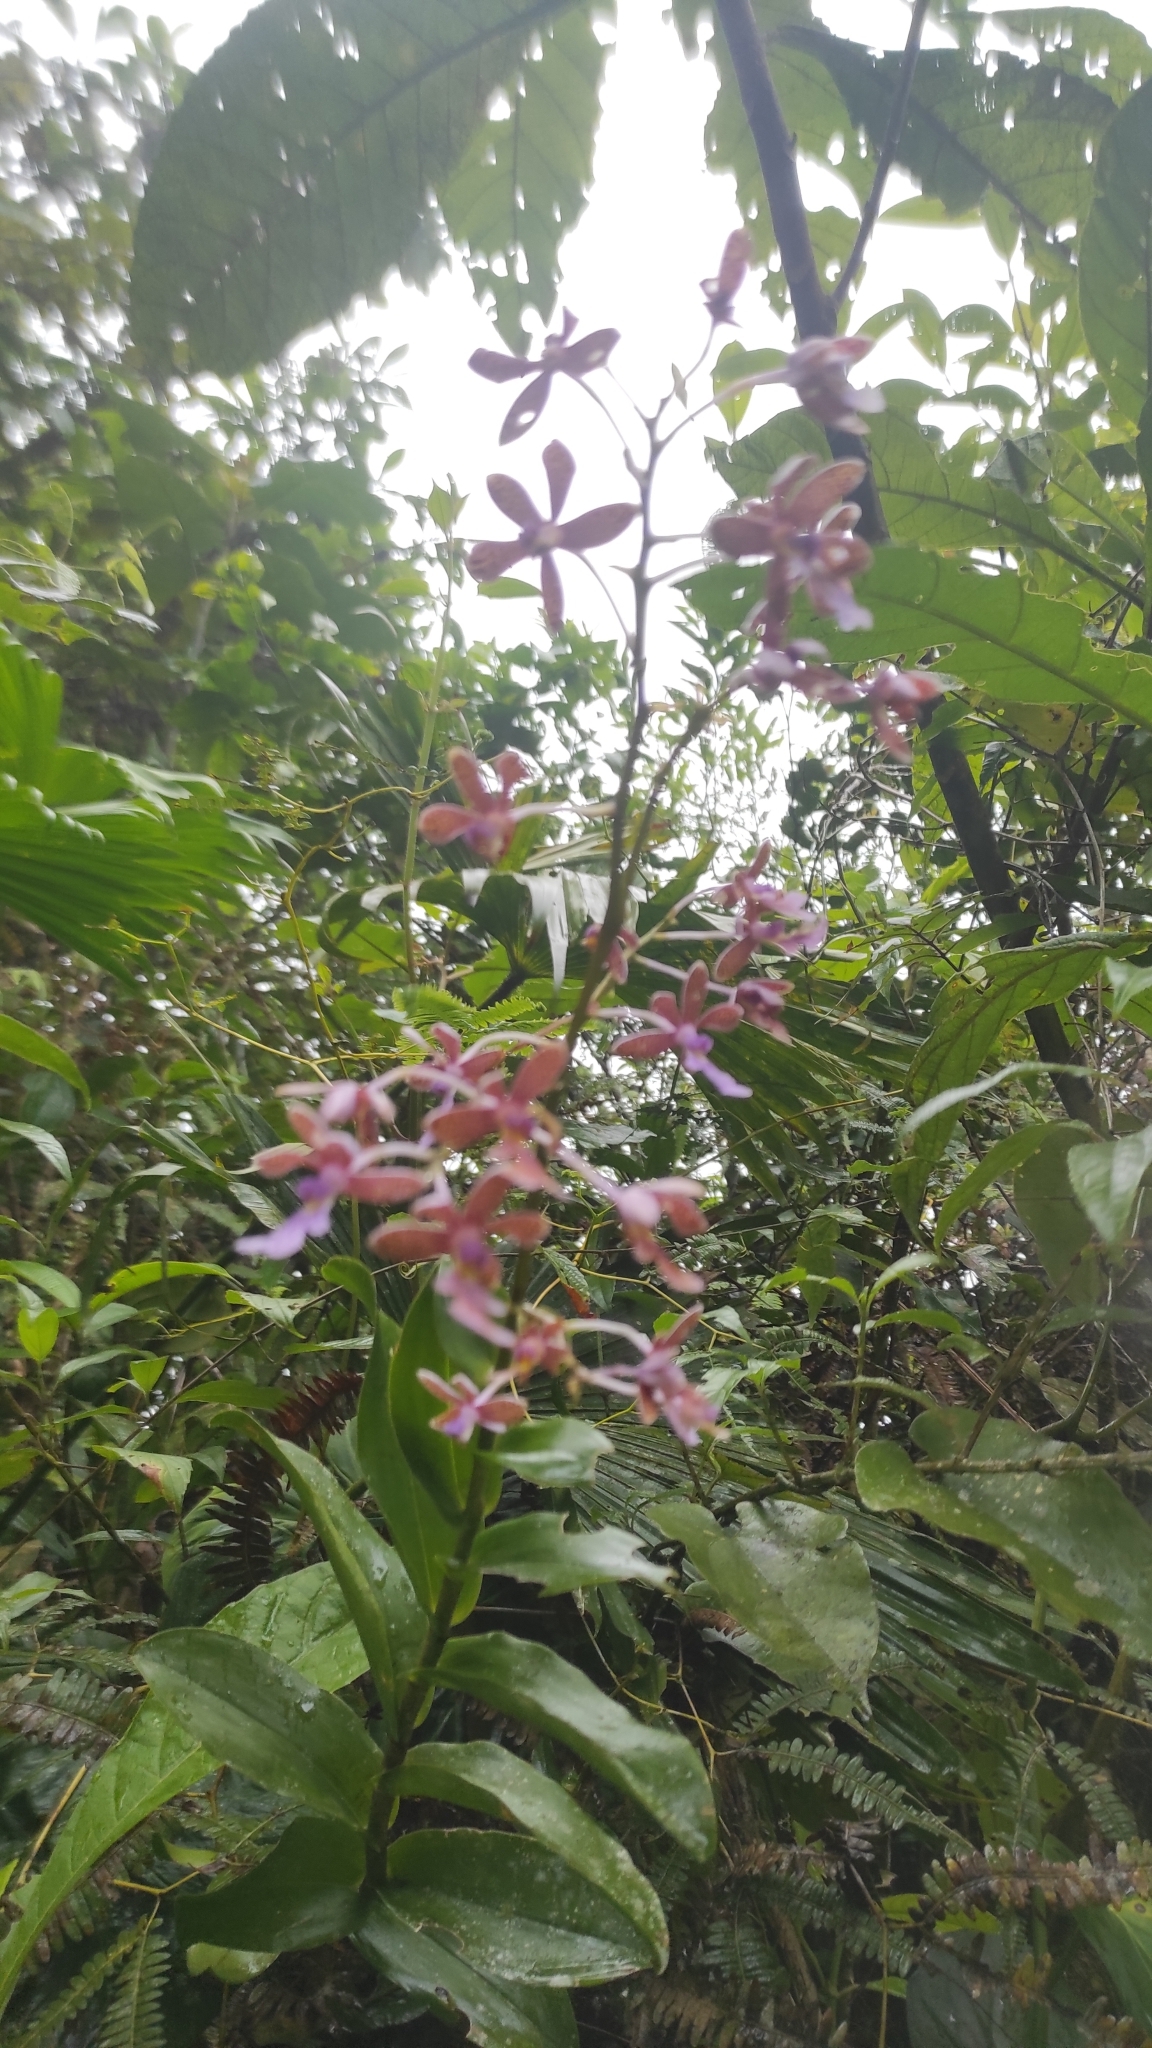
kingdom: Plantae
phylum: Tracheophyta
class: Liliopsida
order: Asparagales
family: Orchidaceae
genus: Epidendrum
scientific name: Epidendrum pseudoschumannianum
